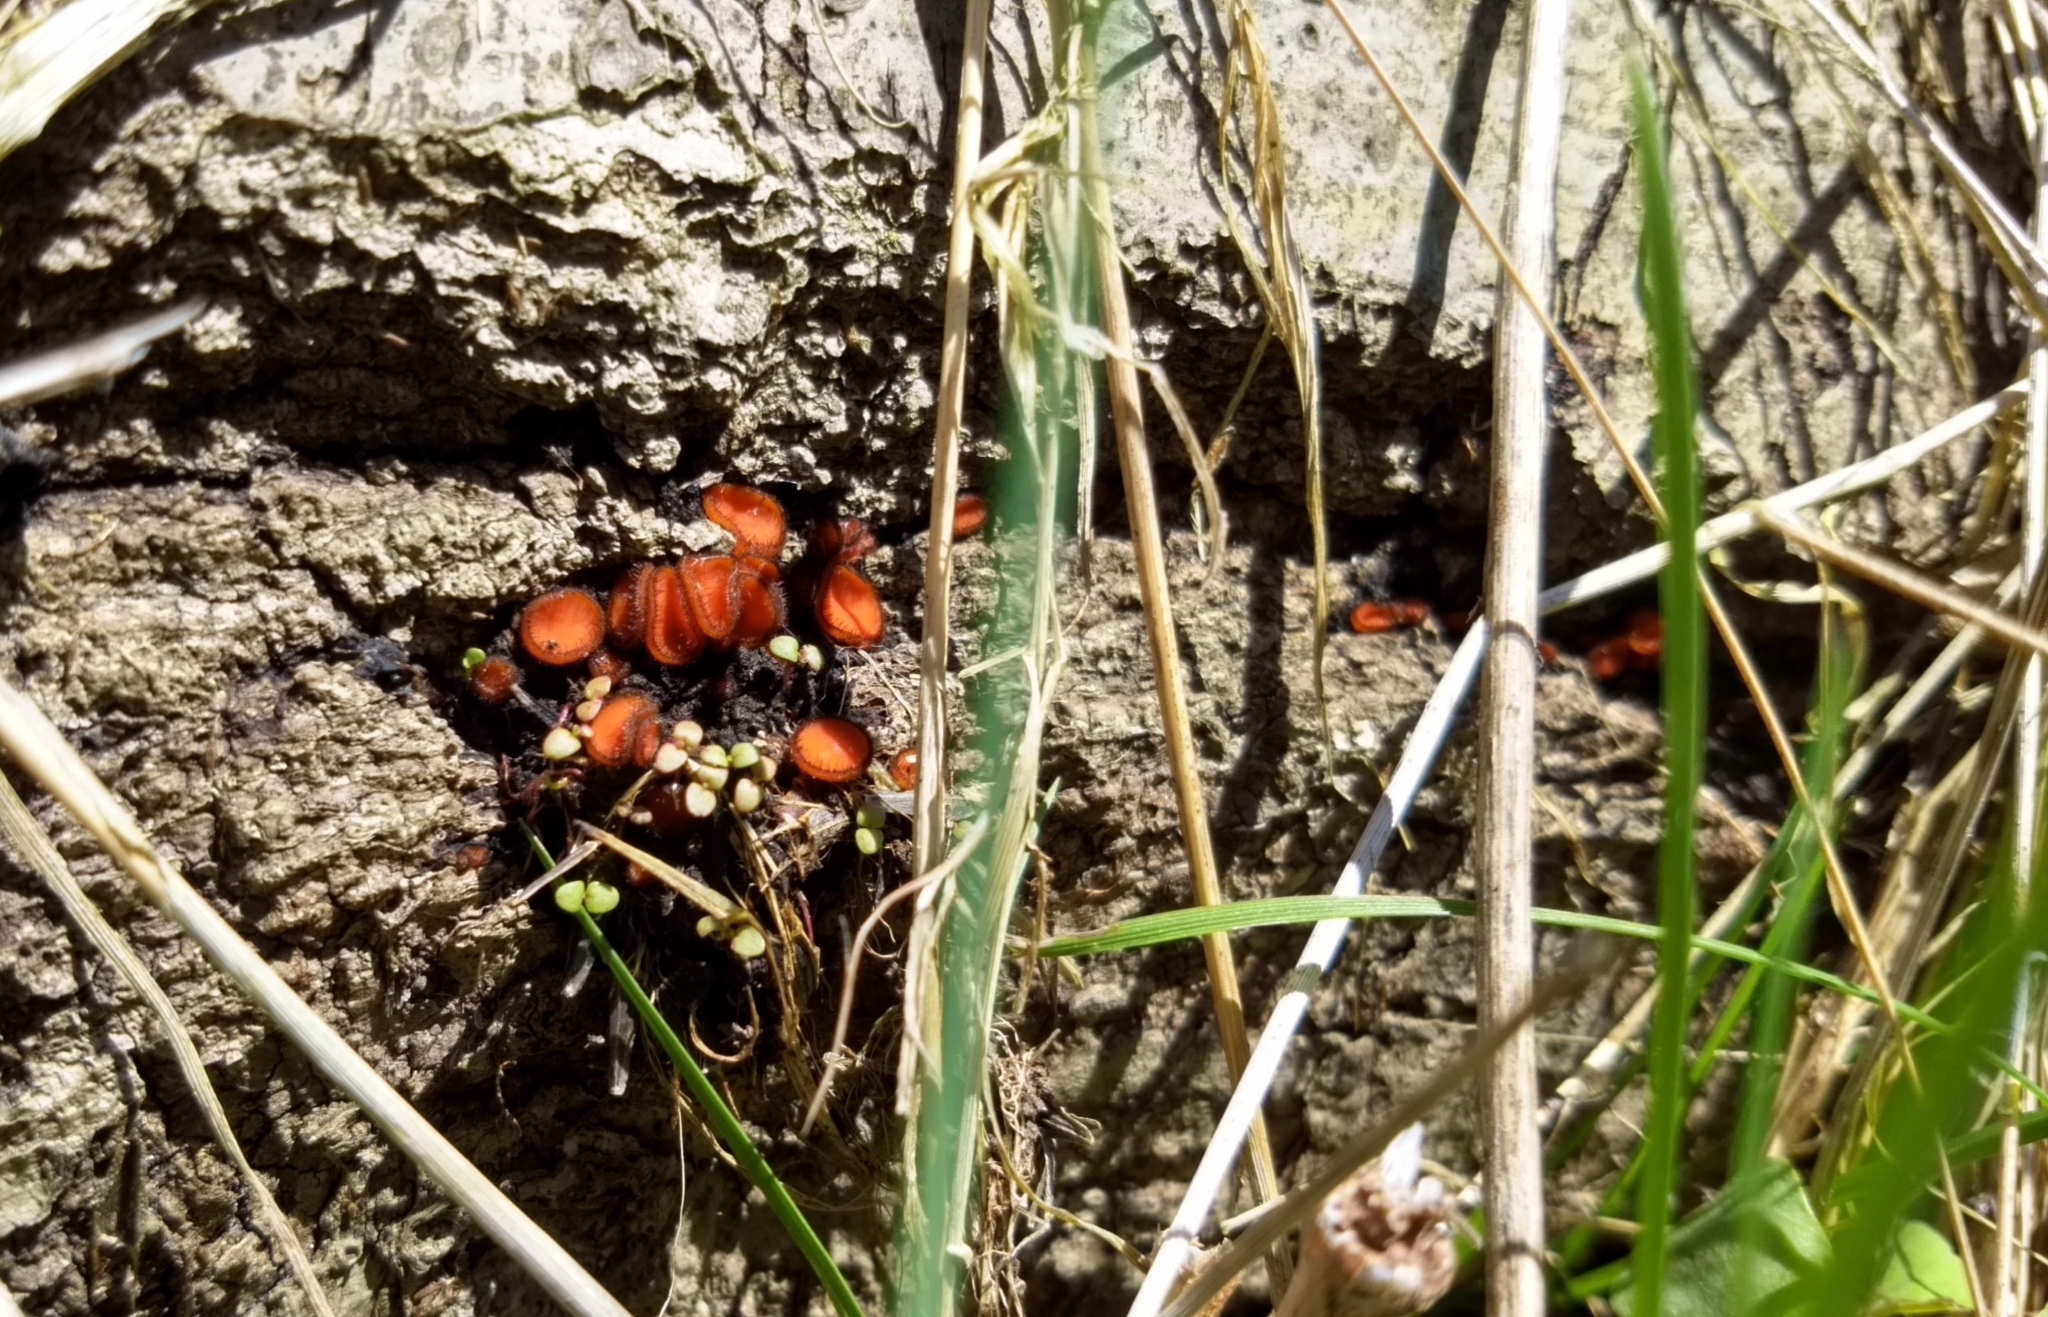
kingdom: Fungi
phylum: Ascomycota
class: Pezizomycetes
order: Pezizales
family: Pyronemataceae
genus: Scutellinia
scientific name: Scutellinia
